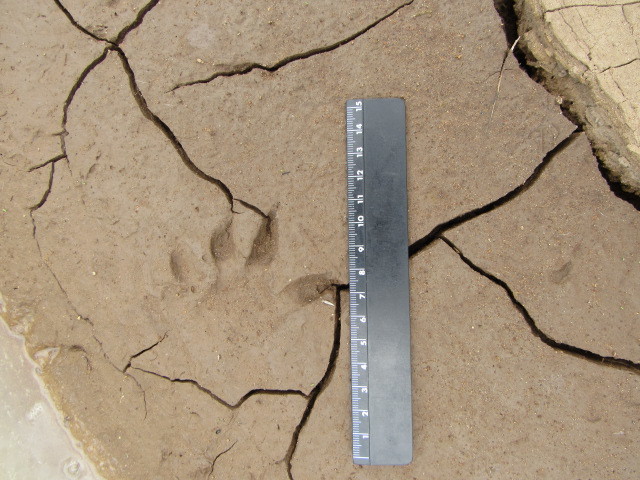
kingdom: Animalia
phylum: Chordata
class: Mammalia
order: Carnivora
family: Procyonidae
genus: Procyon
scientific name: Procyon lotor
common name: Raccoon
